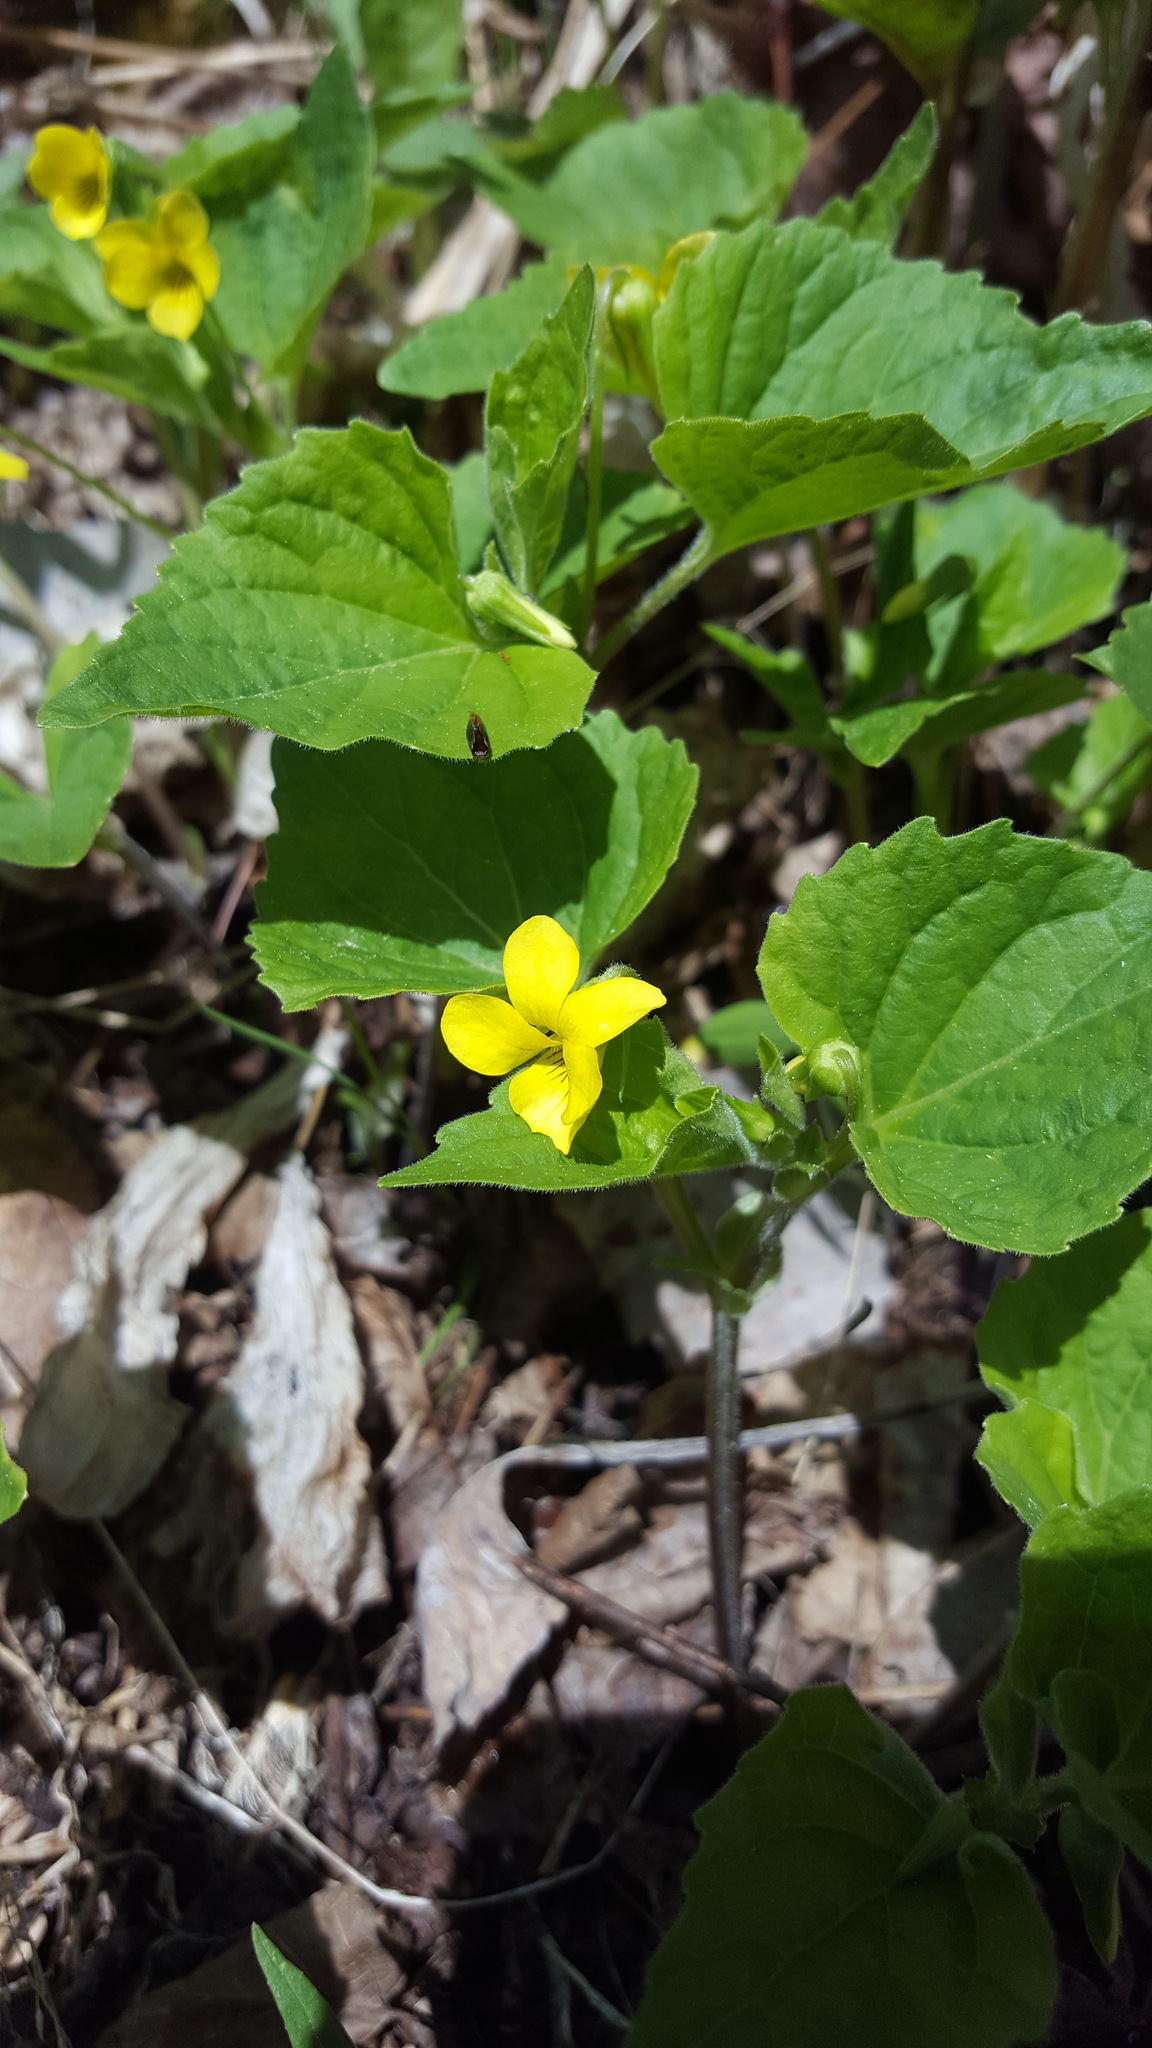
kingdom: Plantae
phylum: Tracheophyta
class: Magnoliopsida
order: Malpighiales
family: Violaceae
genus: Viola
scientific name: Viola eriocarpa
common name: Smooth yellow violet
